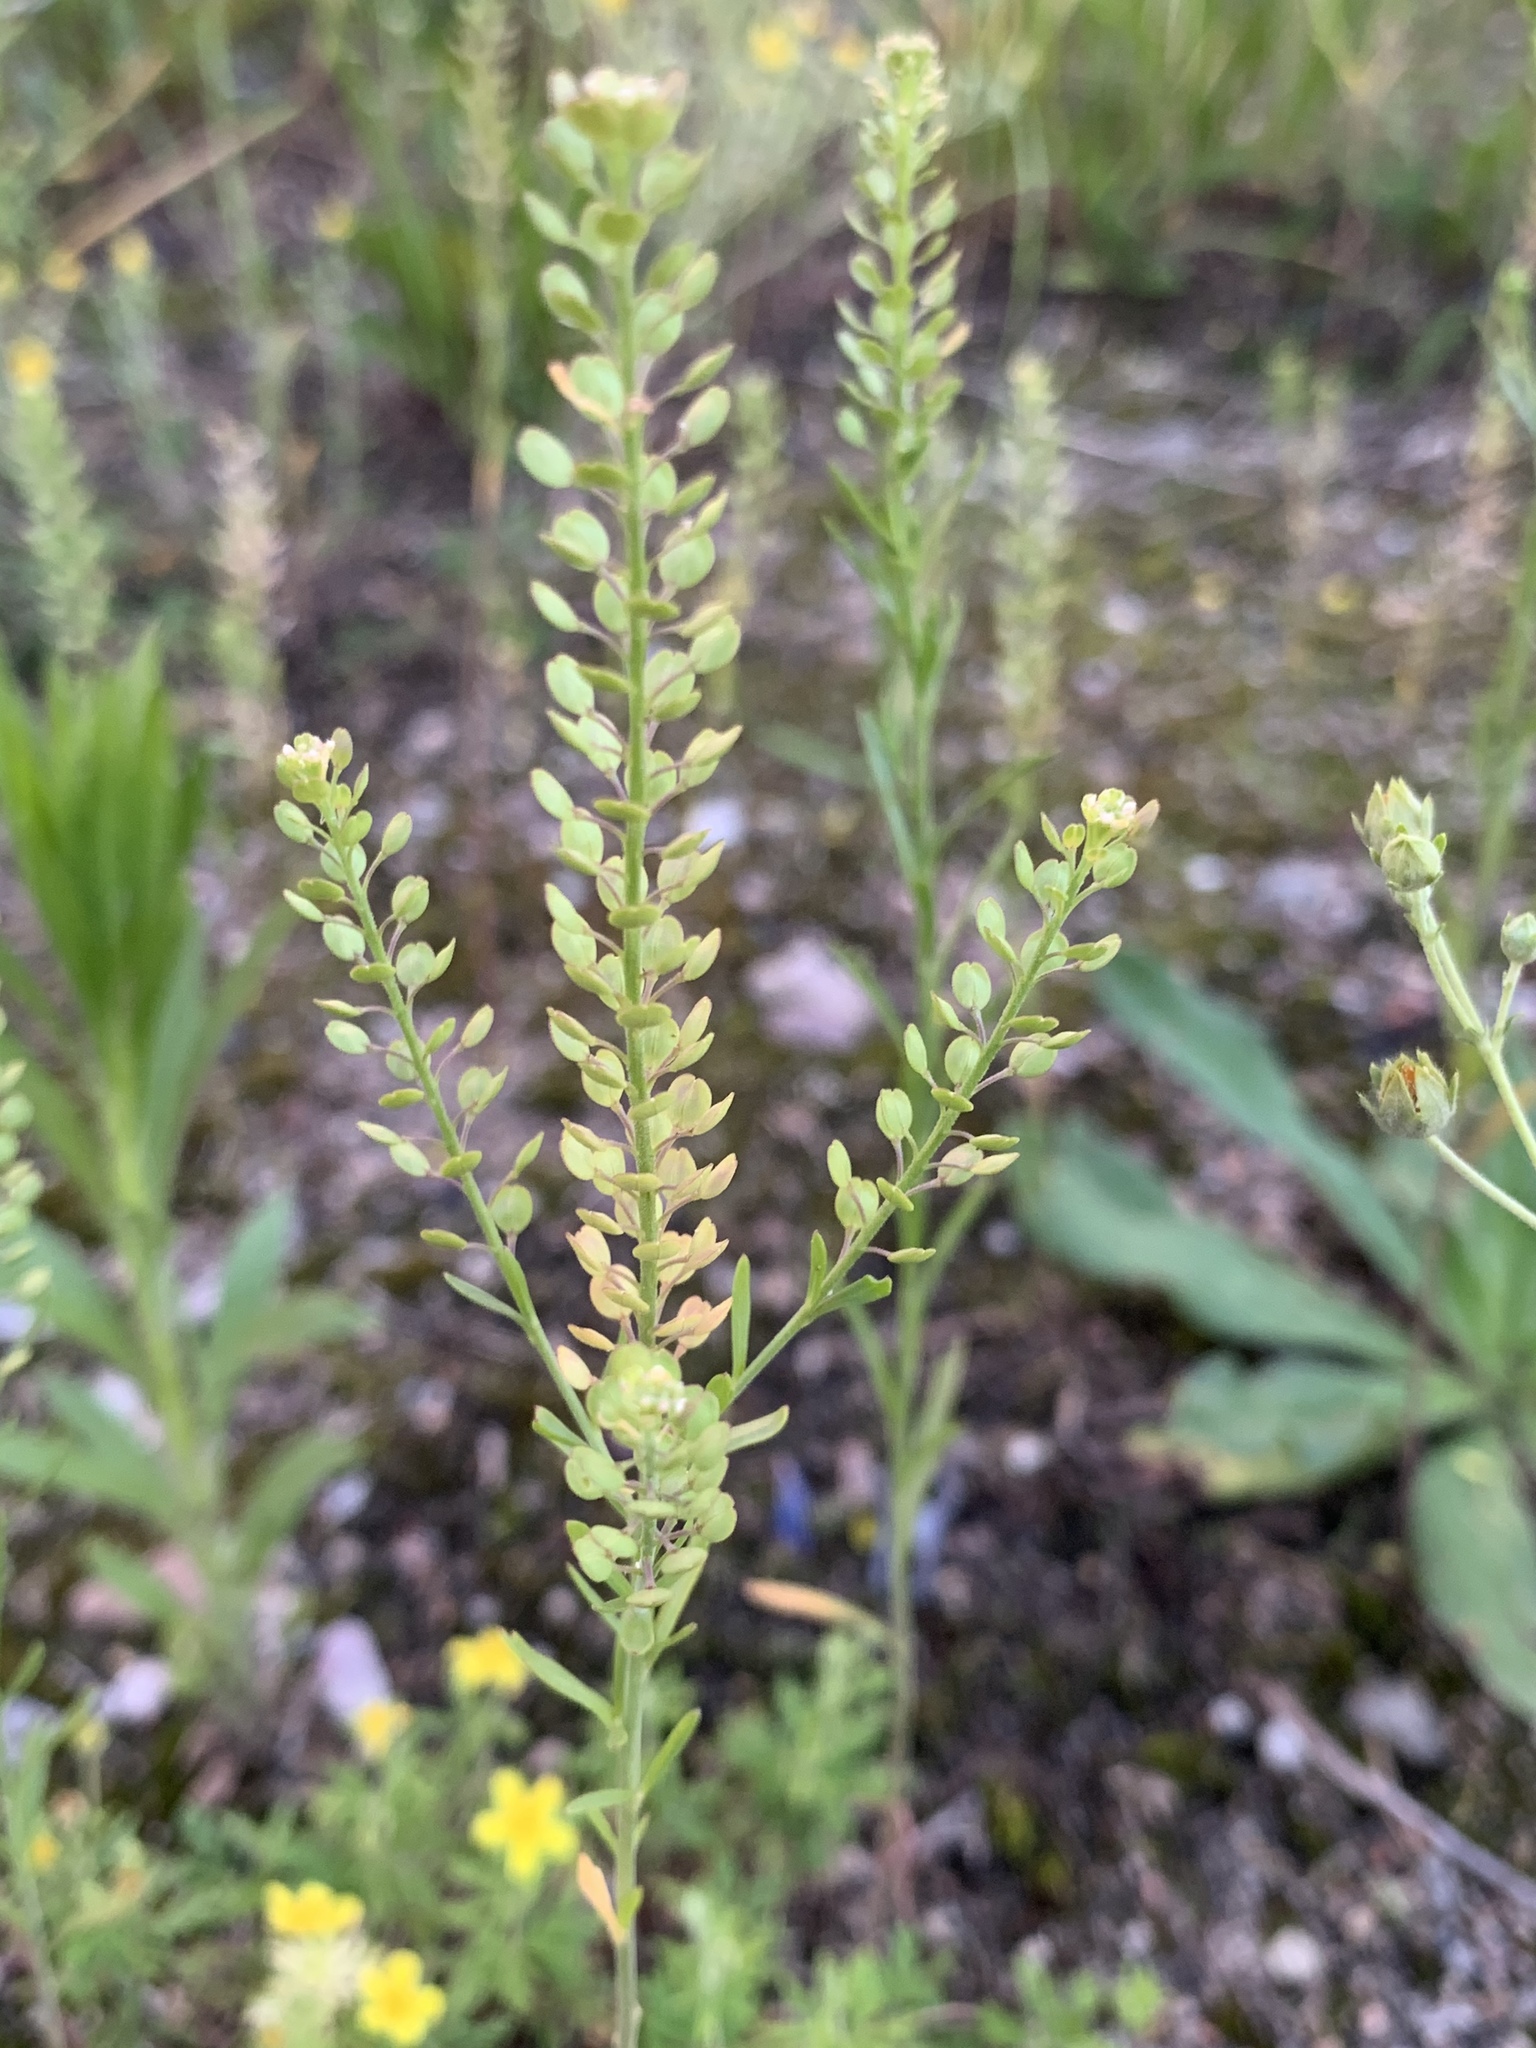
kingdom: Plantae
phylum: Tracheophyta
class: Magnoliopsida
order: Brassicales
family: Brassicaceae
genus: Lepidium
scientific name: Lepidium densiflorum
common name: Miner's pepperwort
